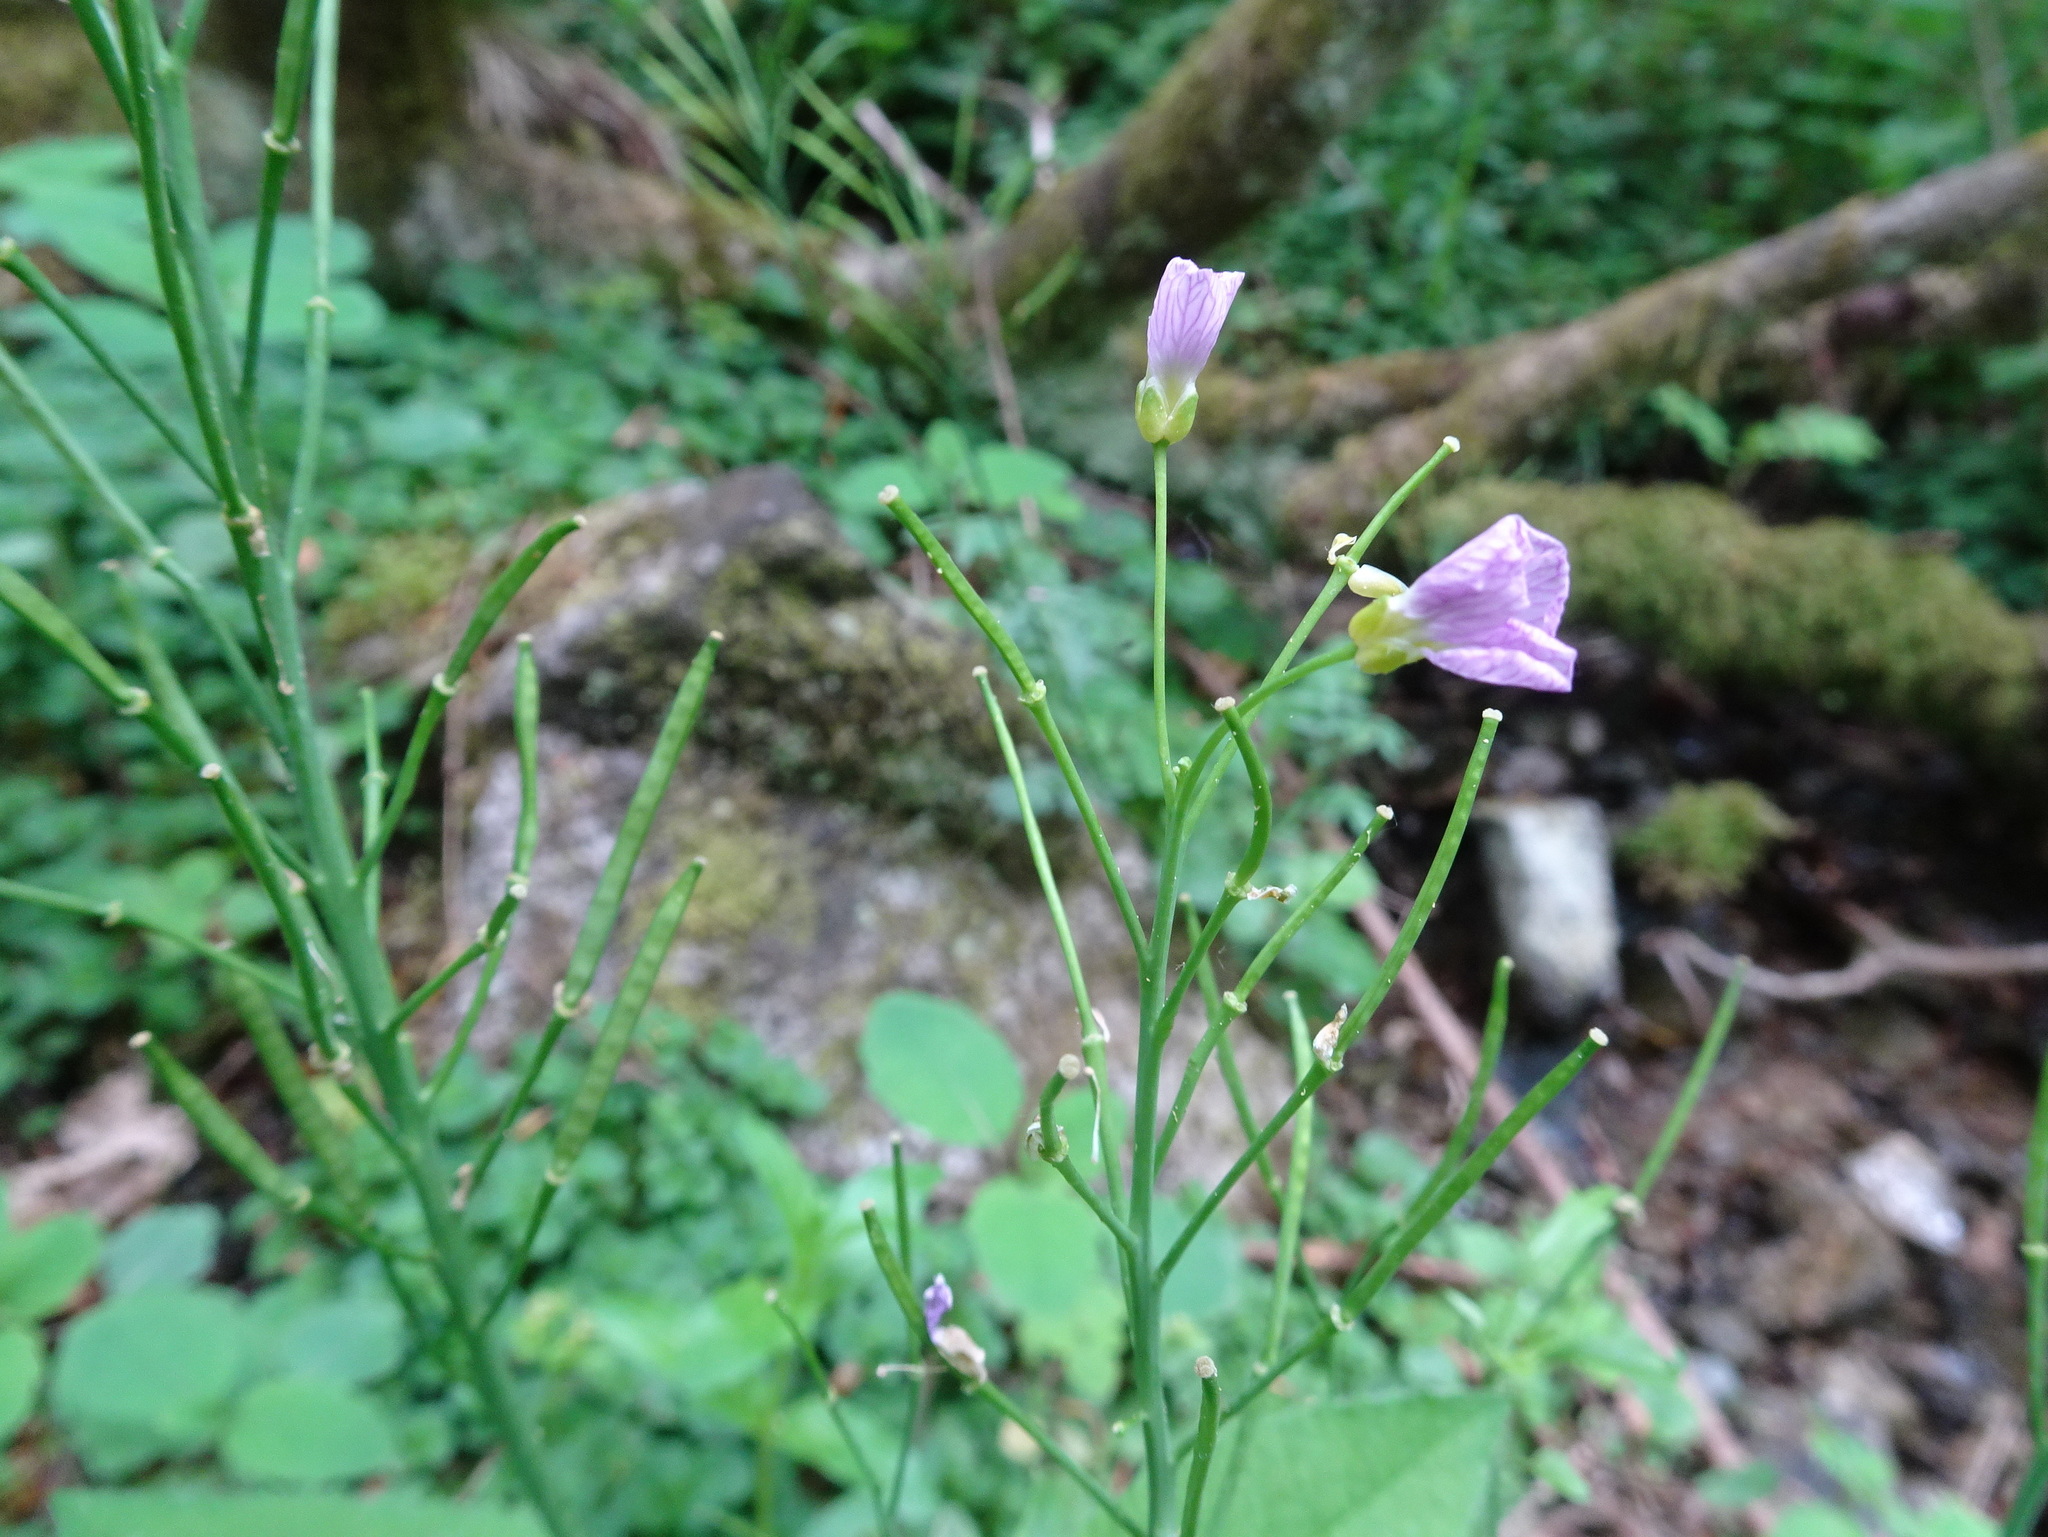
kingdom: Plantae
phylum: Tracheophyta
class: Magnoliopsida
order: Brassicales
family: Brassicaceae
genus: Cardamine
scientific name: Cardamine pratensis
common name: Cuckoo flower
